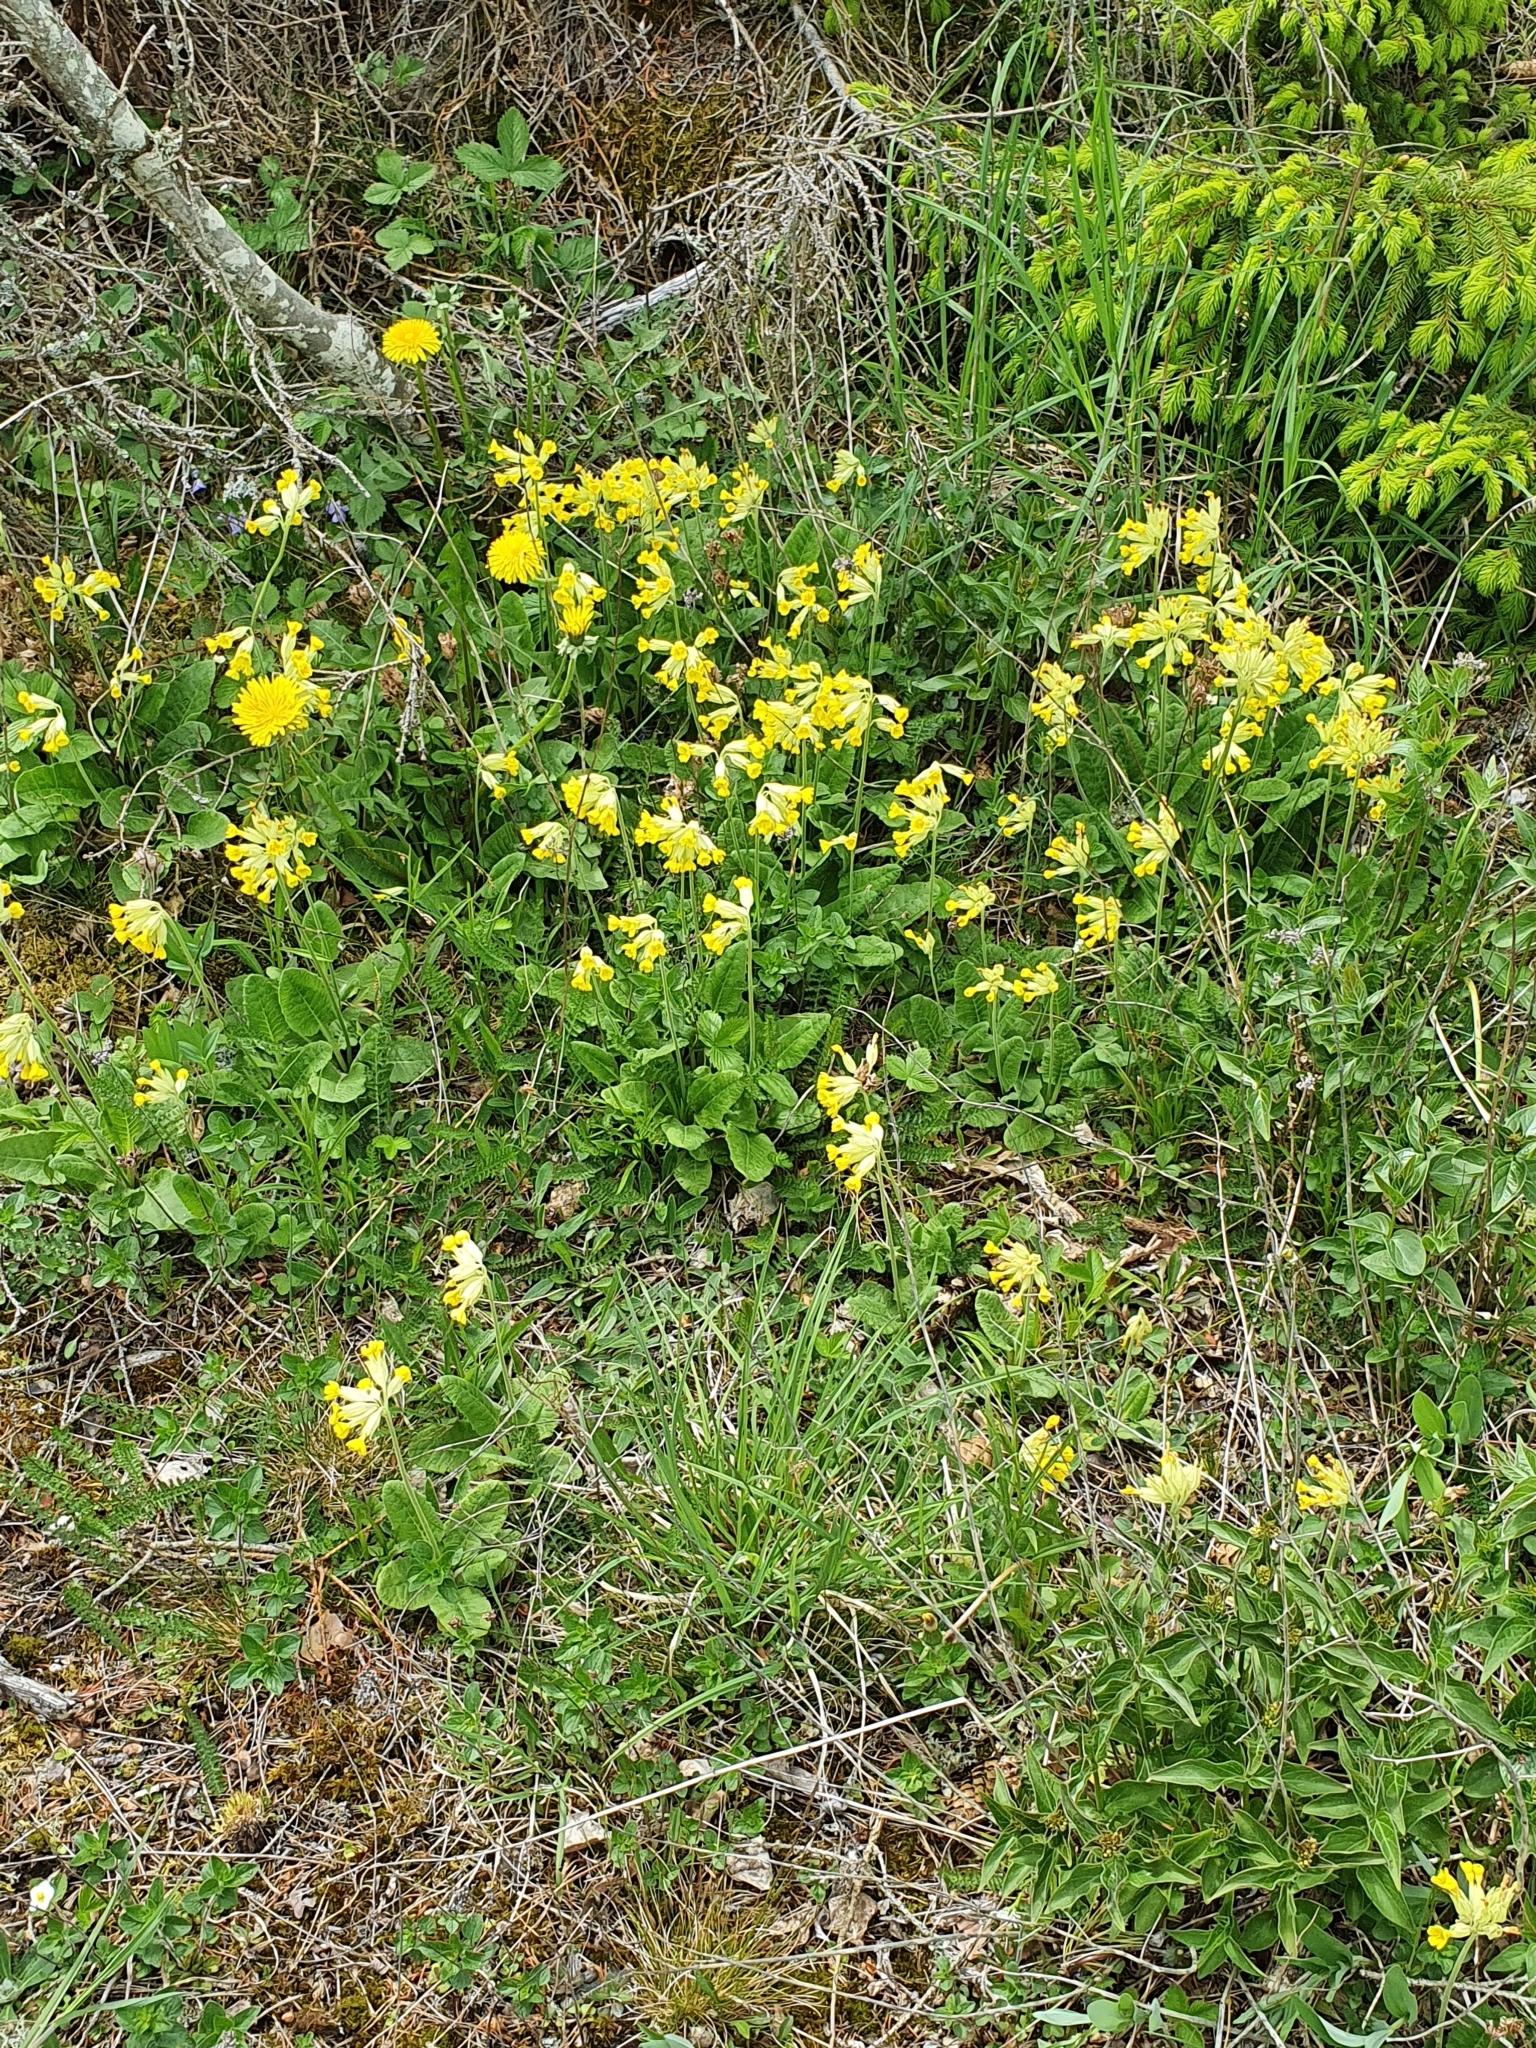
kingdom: Plantae
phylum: Tracheophyta
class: Magnoliopsida
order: Ericales
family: Primulaceae
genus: Primula
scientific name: Primula veris
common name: Cowslip
